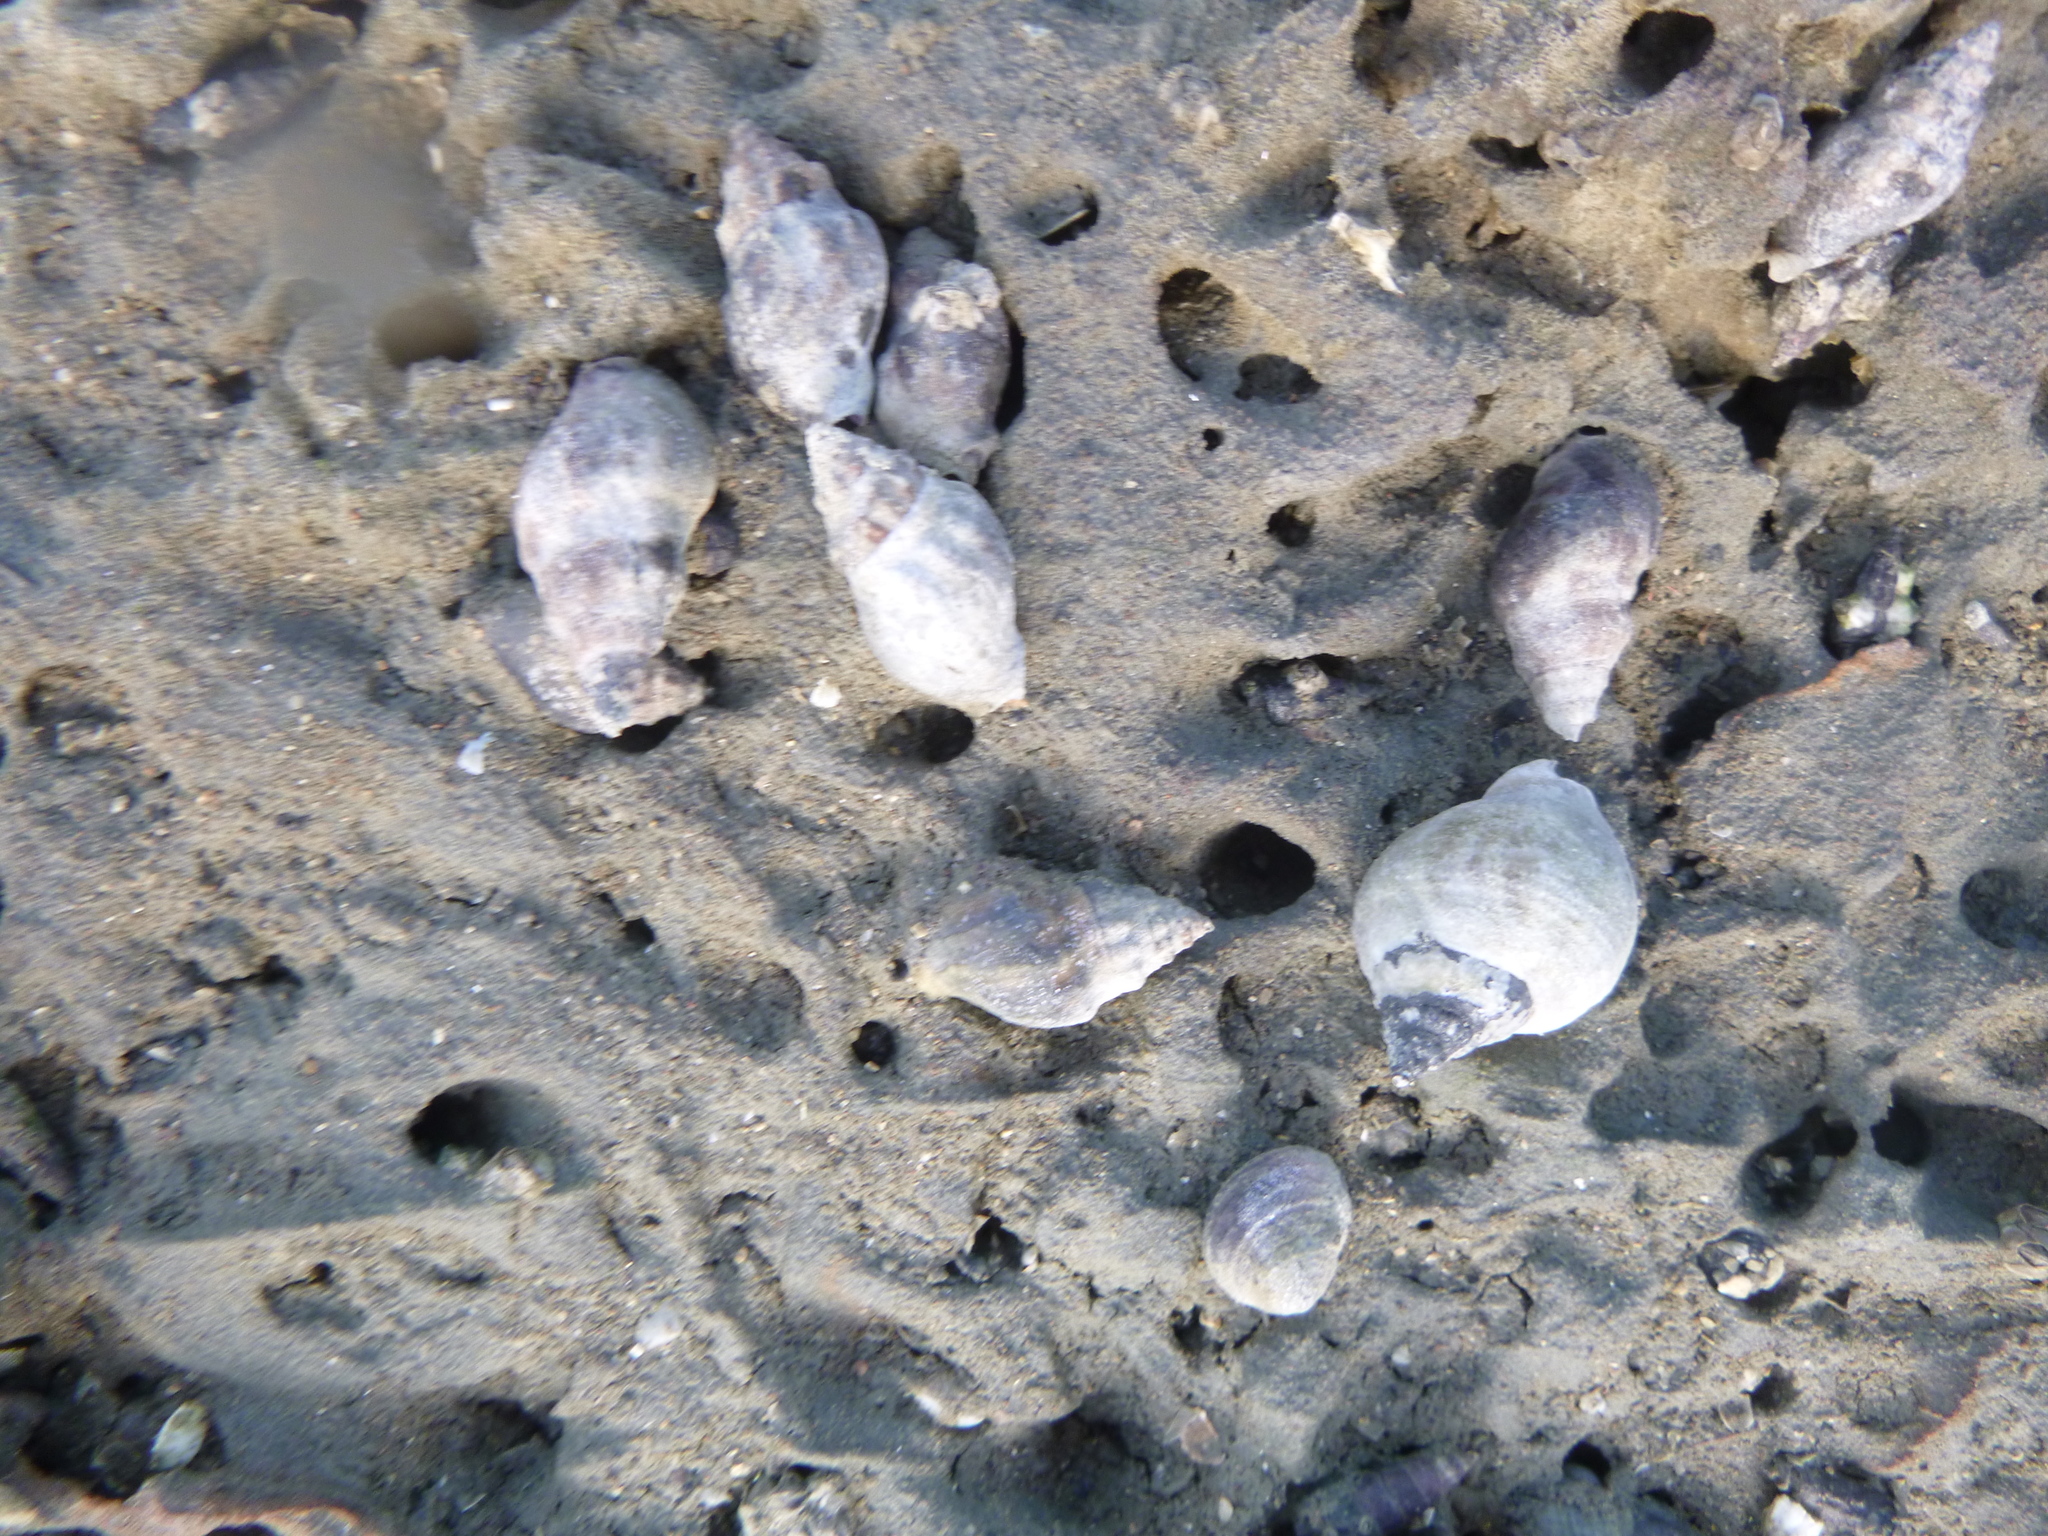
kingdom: Animalia
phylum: Mollusca
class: Gastropoda
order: Trochida
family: Trochidae
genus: Diloma
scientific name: Diloma subrostratum
